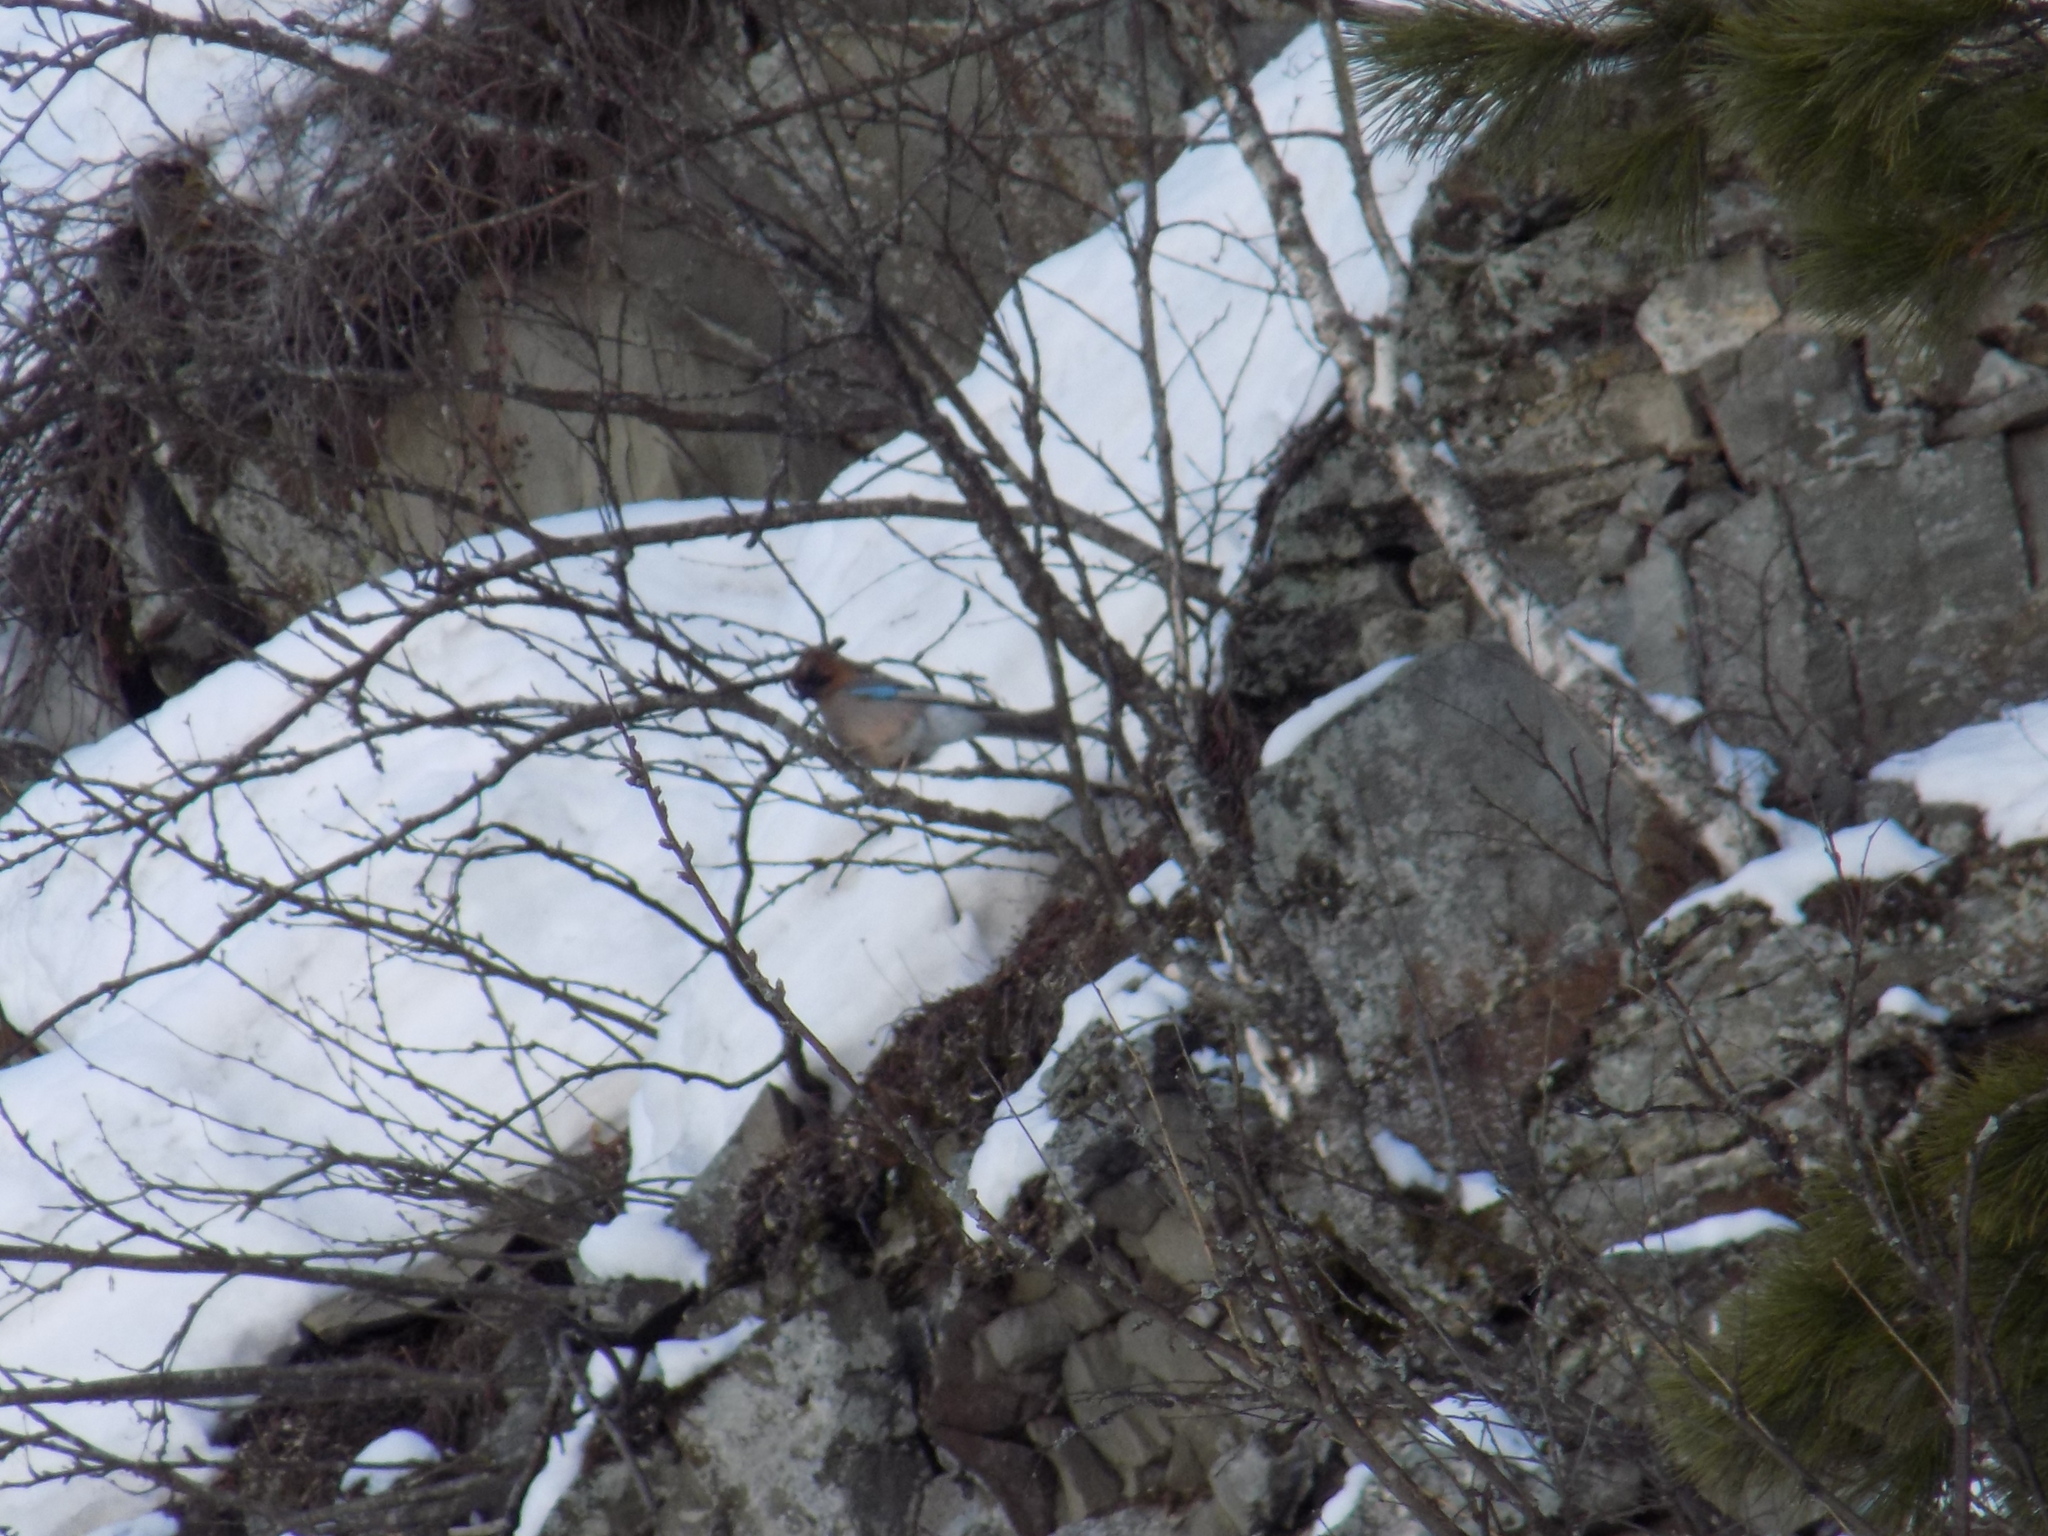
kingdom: Animalia
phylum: Chordata
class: Aves
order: Passeriformes
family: Corvidae
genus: Garrulus
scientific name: Garrulus glandarius
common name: Eurasian jay
